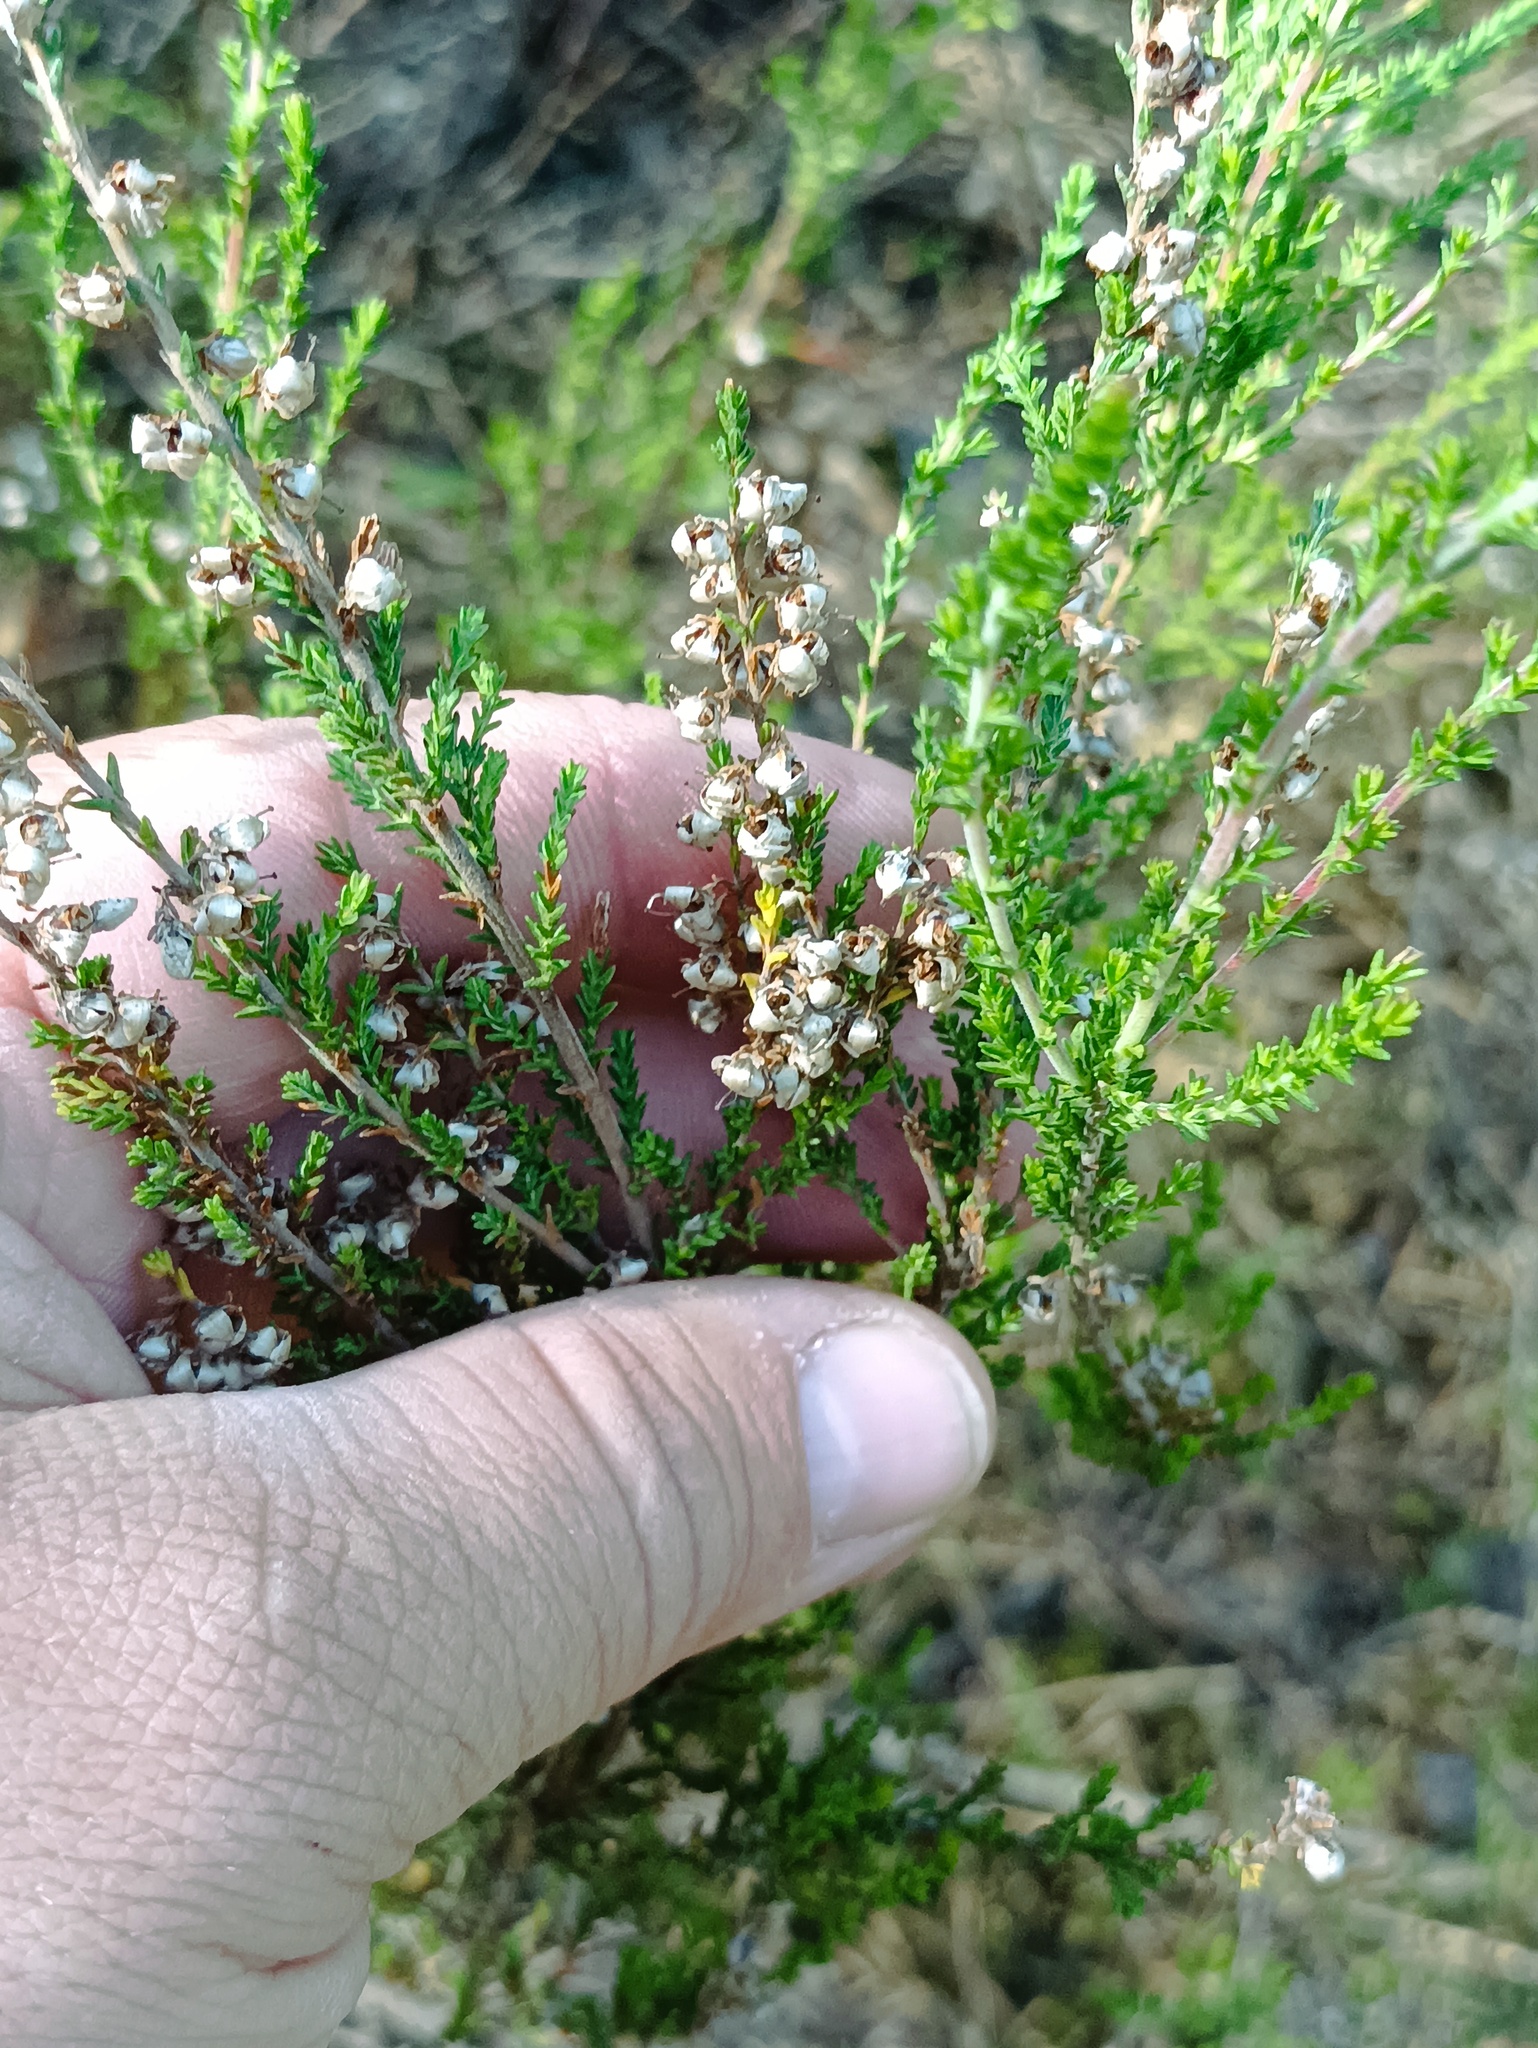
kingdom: Plantae
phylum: Tracheophyta
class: Magnoliopsida
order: Ericales
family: Ericaceae
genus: Calluna
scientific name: Calluna vulgaris
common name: Heather
